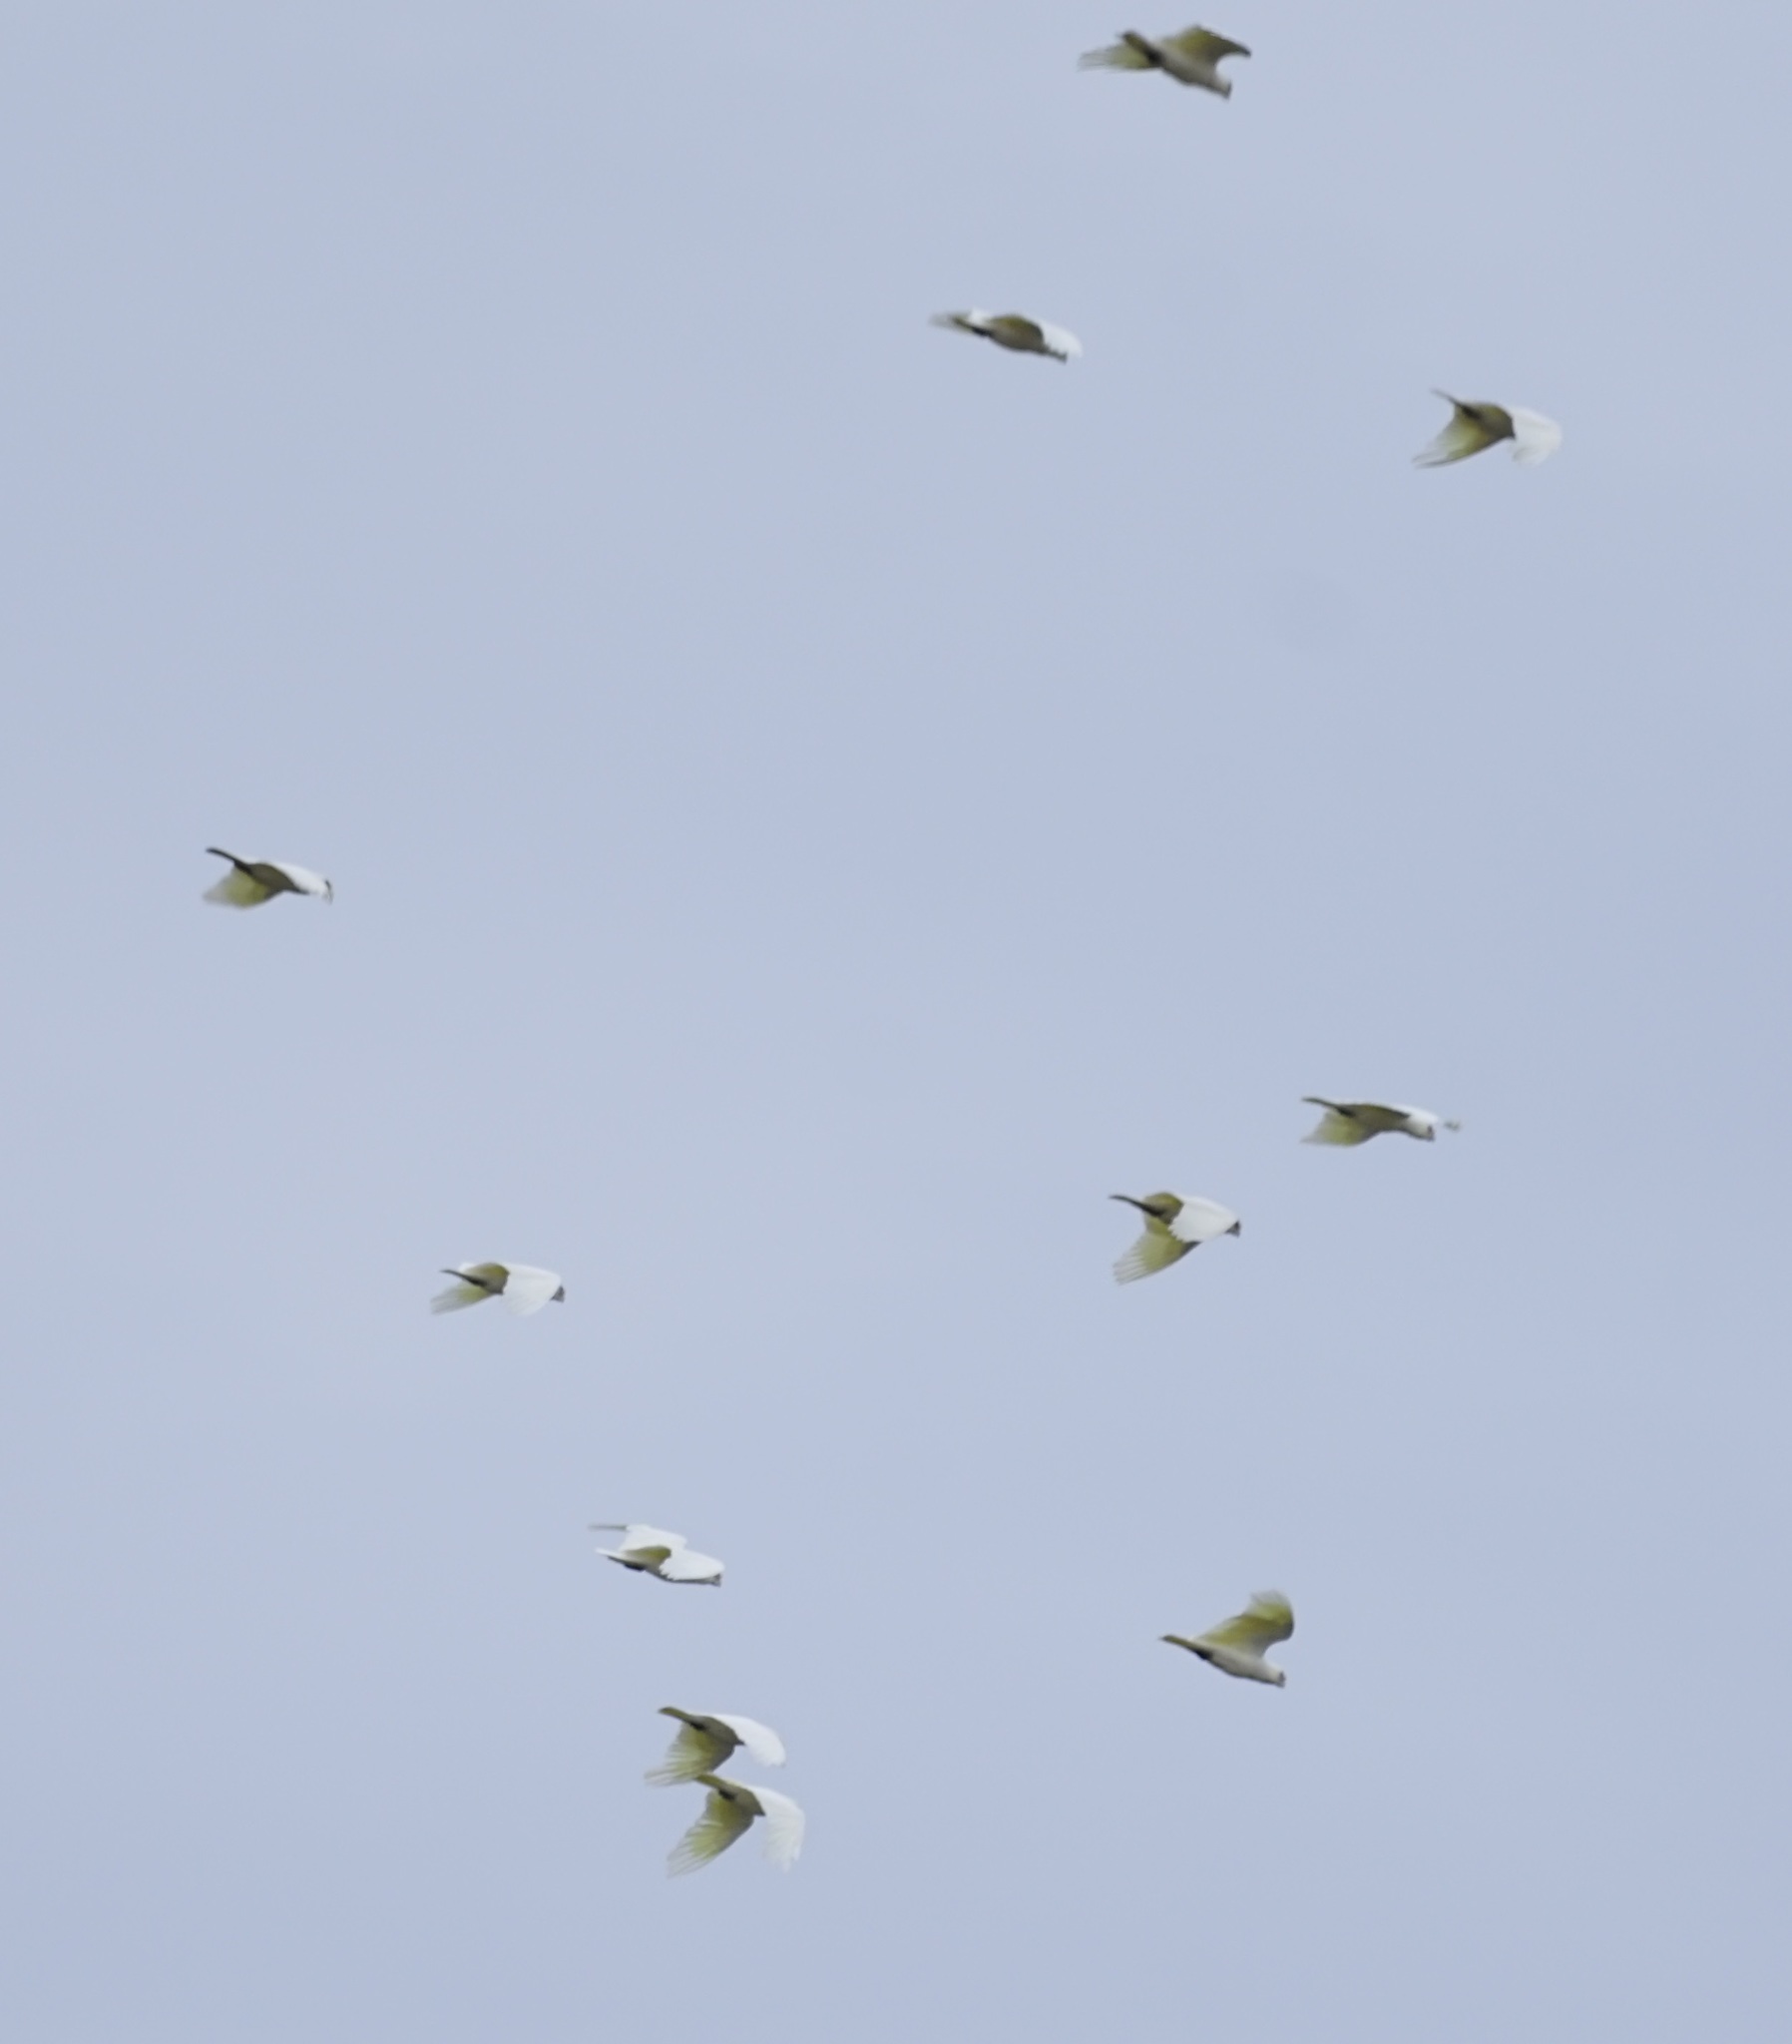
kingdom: Animalia
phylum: Chordata
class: Aves
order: Psittaciformes
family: Psittacidae
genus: Cacatua
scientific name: Cacatua sanguinea
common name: Little corella
